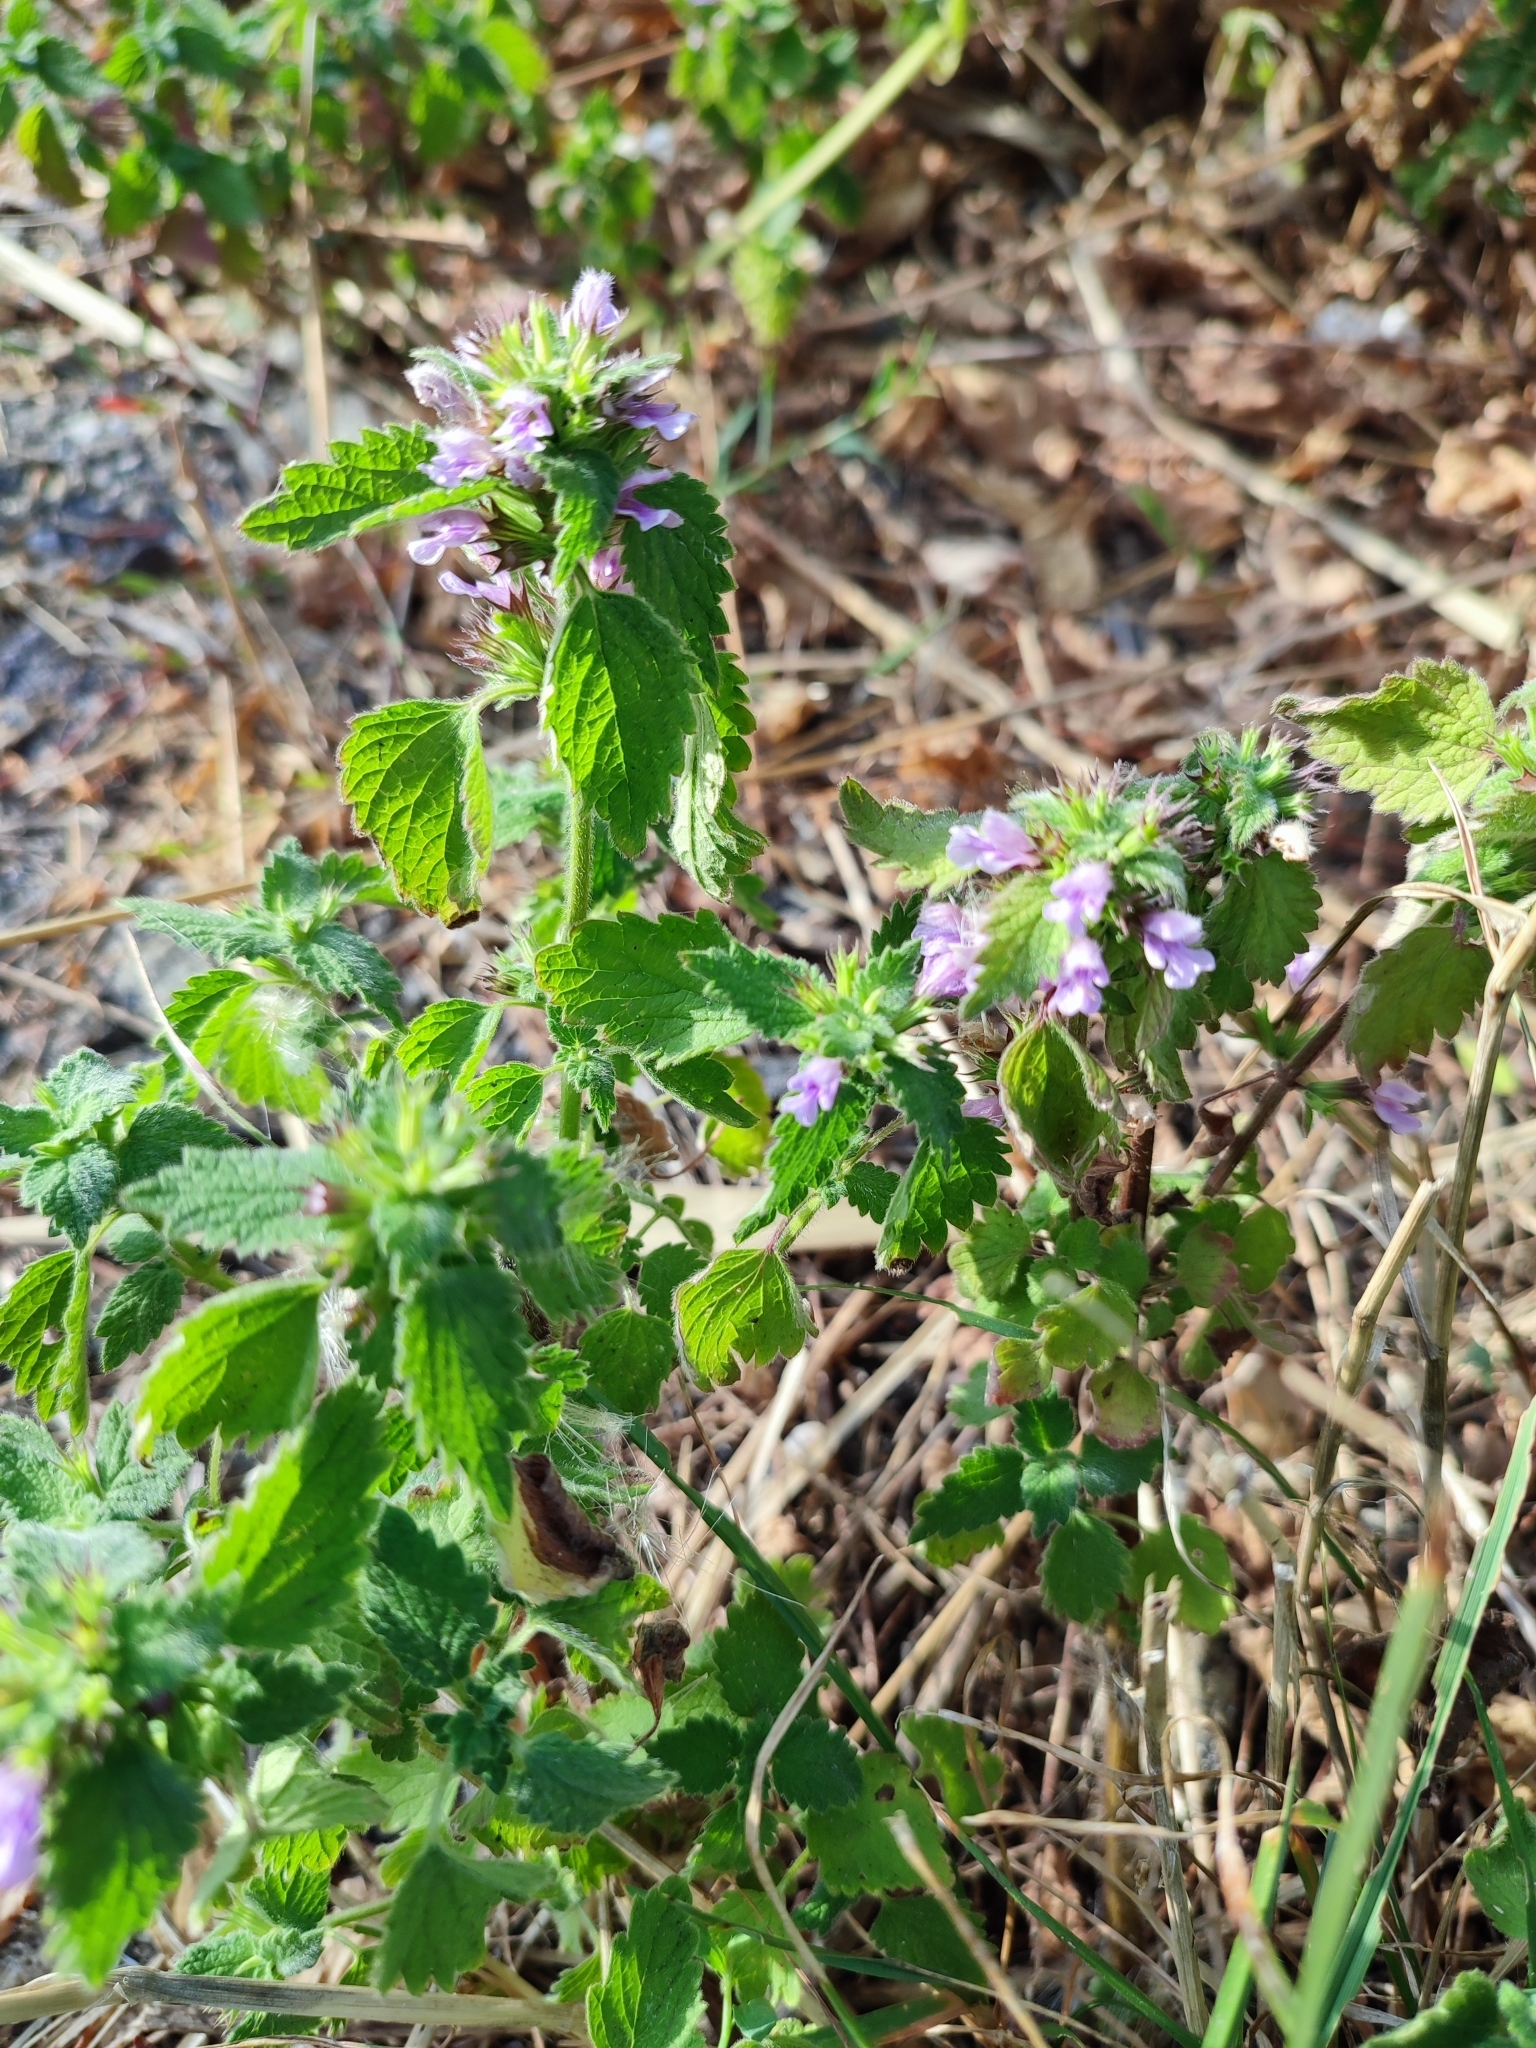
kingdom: Plantae
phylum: Tracheophyta
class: Magnoliopsida
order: Lamiales
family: Lamiaceae
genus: Ballota
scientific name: Ballota nigra
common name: Black horehound
